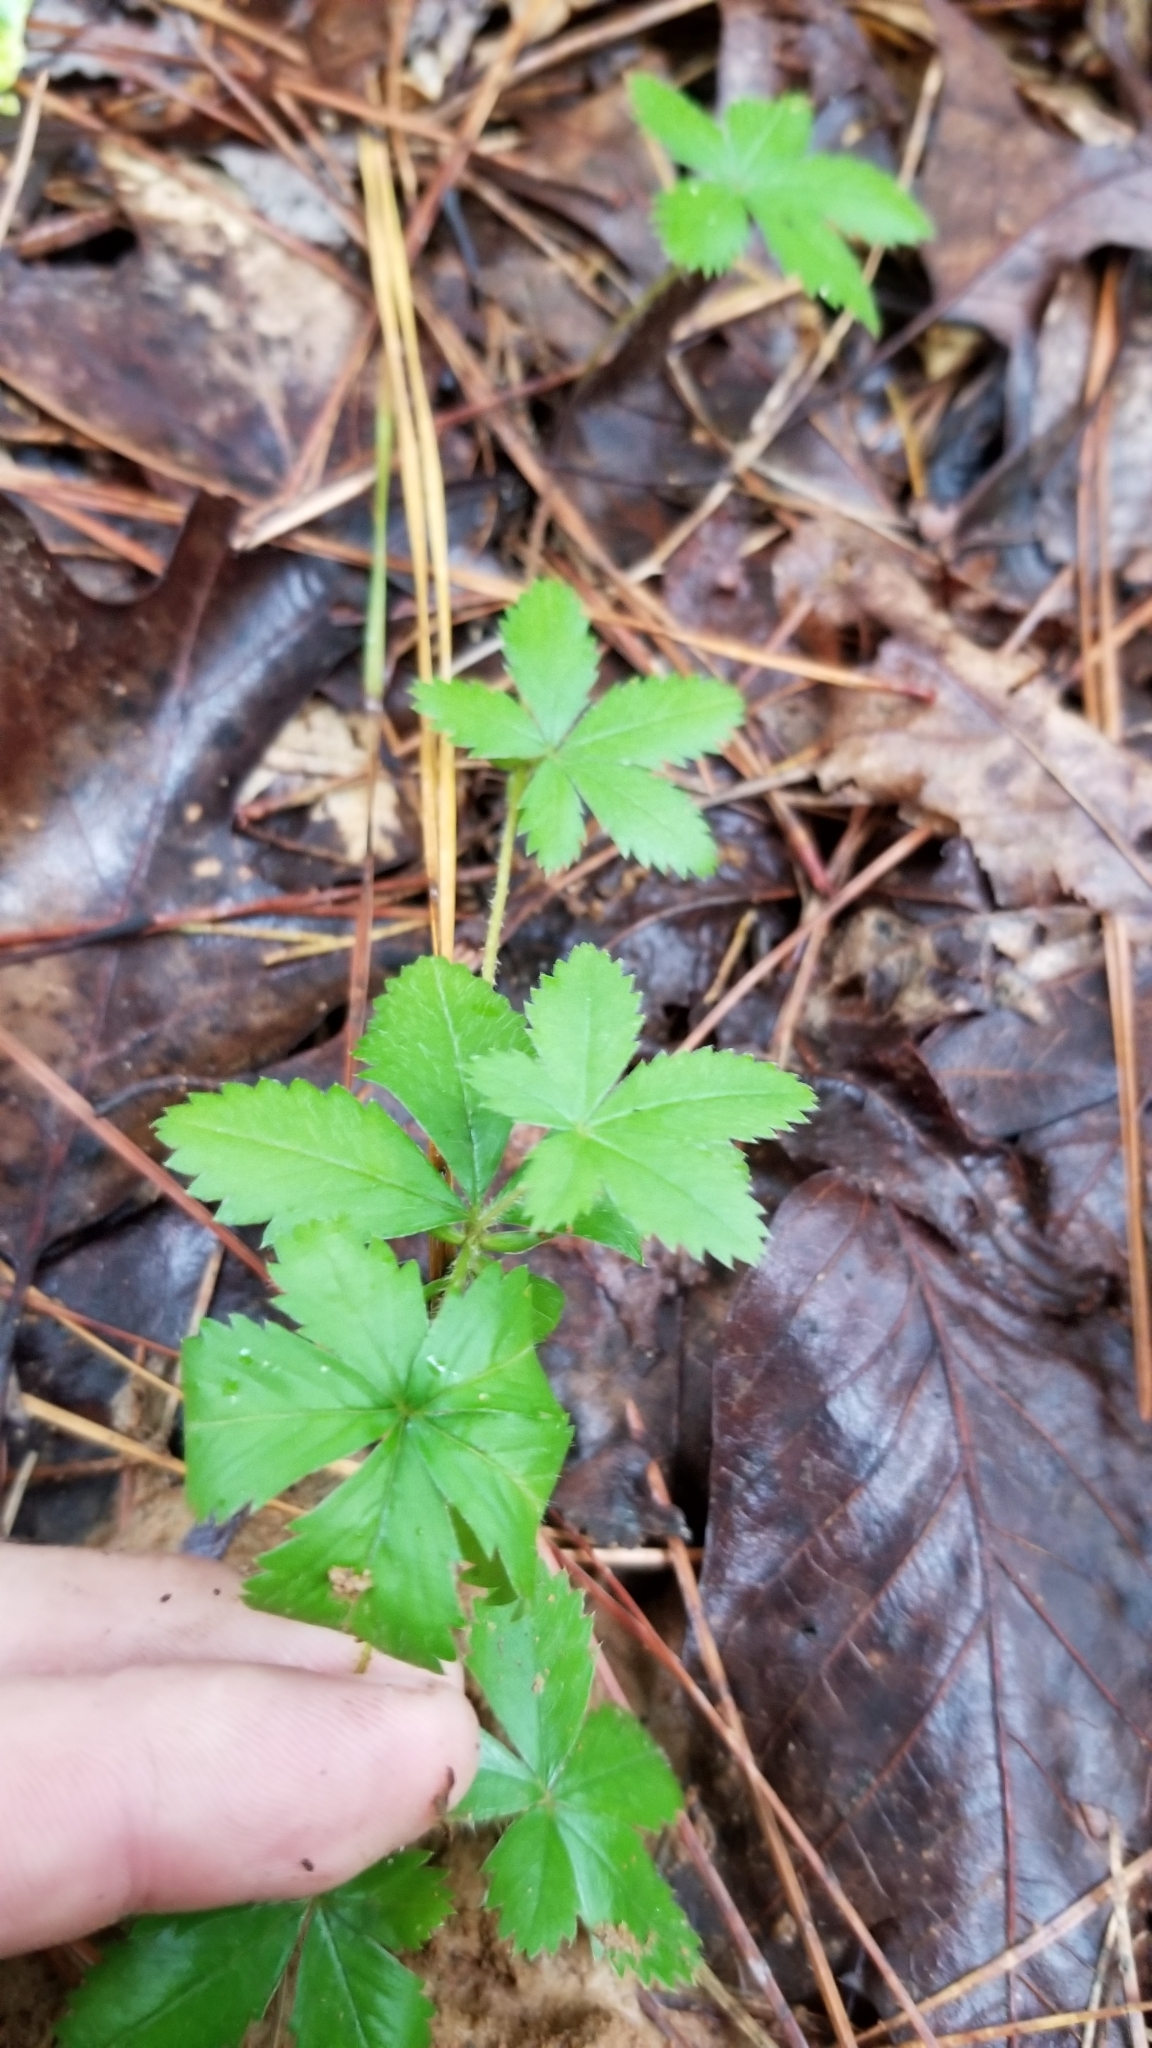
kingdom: Plantae
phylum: Tracheophyta
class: Magnoliopsida
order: Rosales
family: Rosaceae
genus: Potentilla
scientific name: Potentilla simplex
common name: Old field cinquefoil
